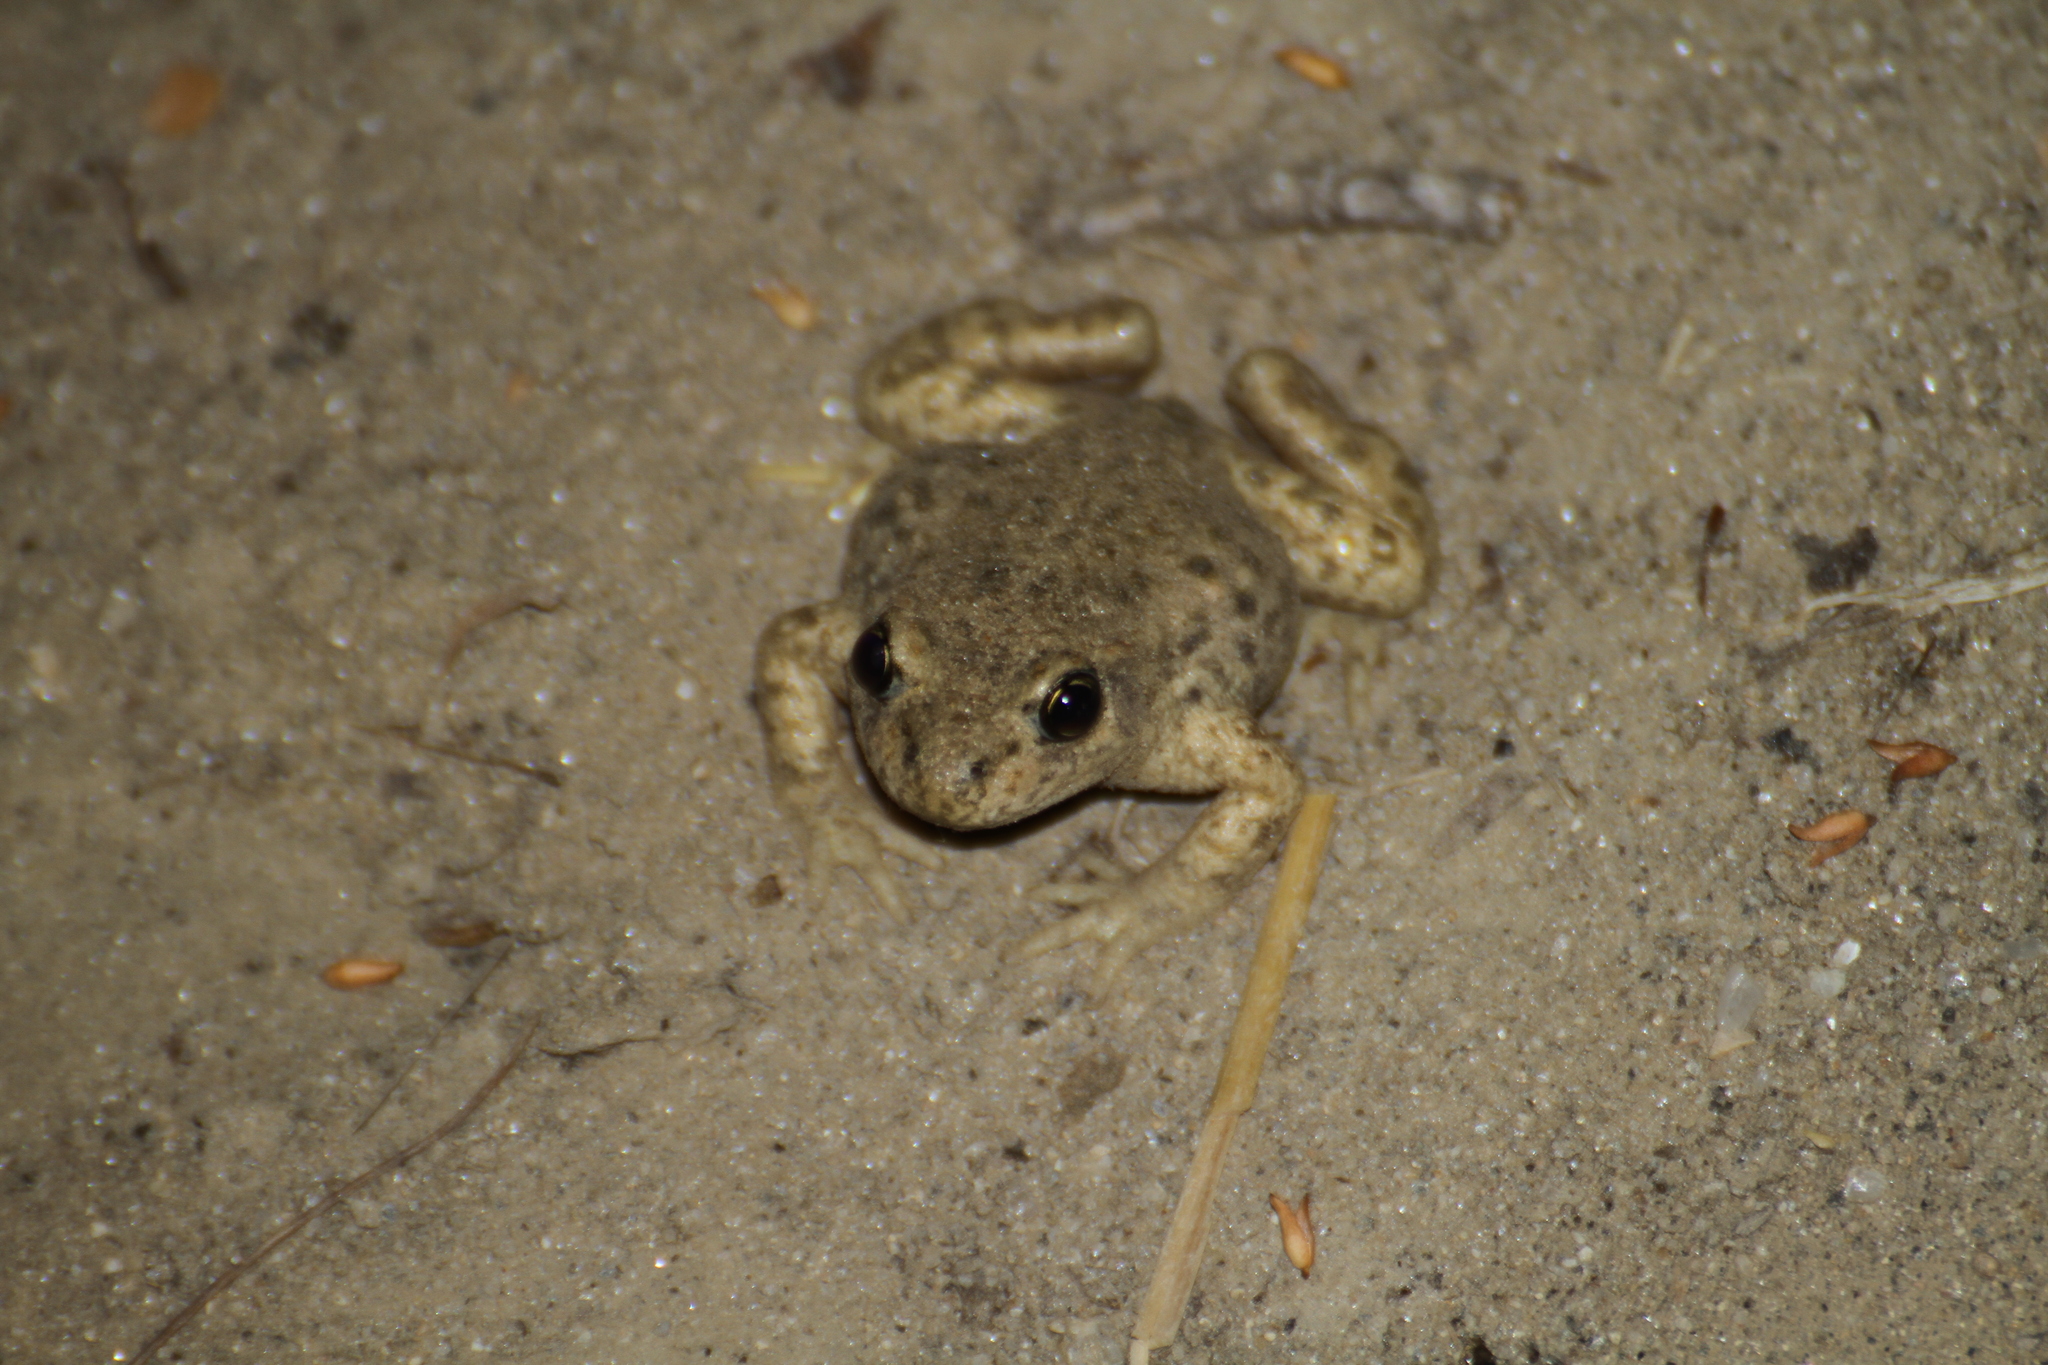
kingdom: Animalia
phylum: Chordata
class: Amphibia
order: Anura
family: Alytidae
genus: Alytes
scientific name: Alytes obstetricans
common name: Midwife toad
